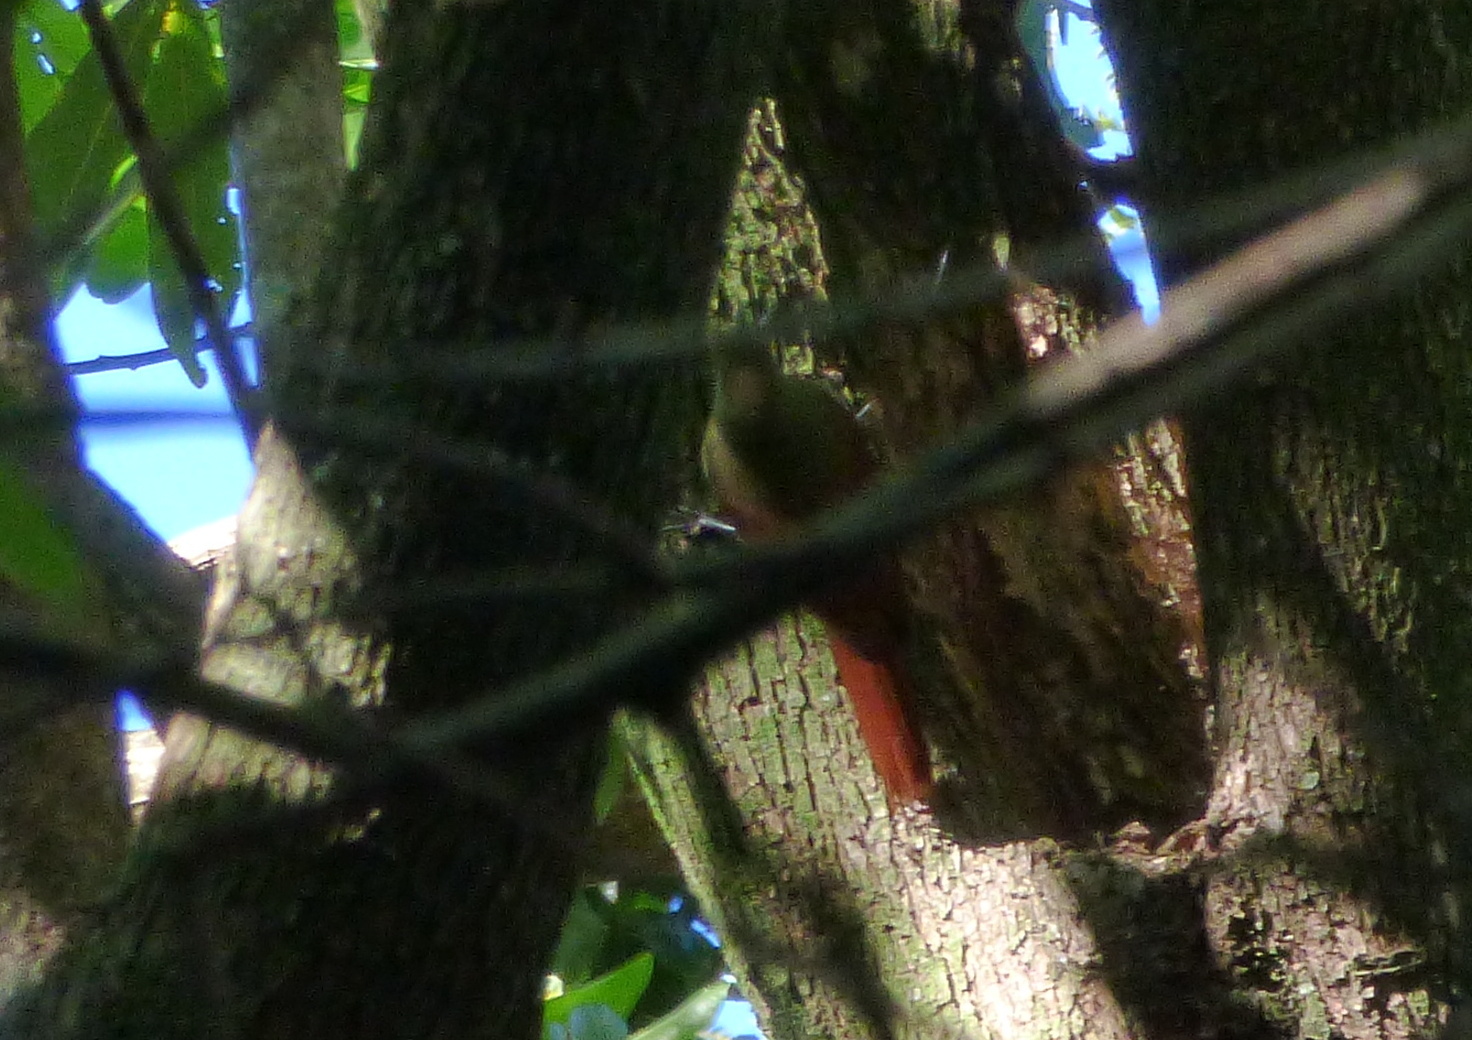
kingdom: Animalia
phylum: Chordata
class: Aves
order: Passeriformes
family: Furnariidae
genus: Sittasomus
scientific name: Sittasomus griseicapillus
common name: Olivaceous woodcreeper
